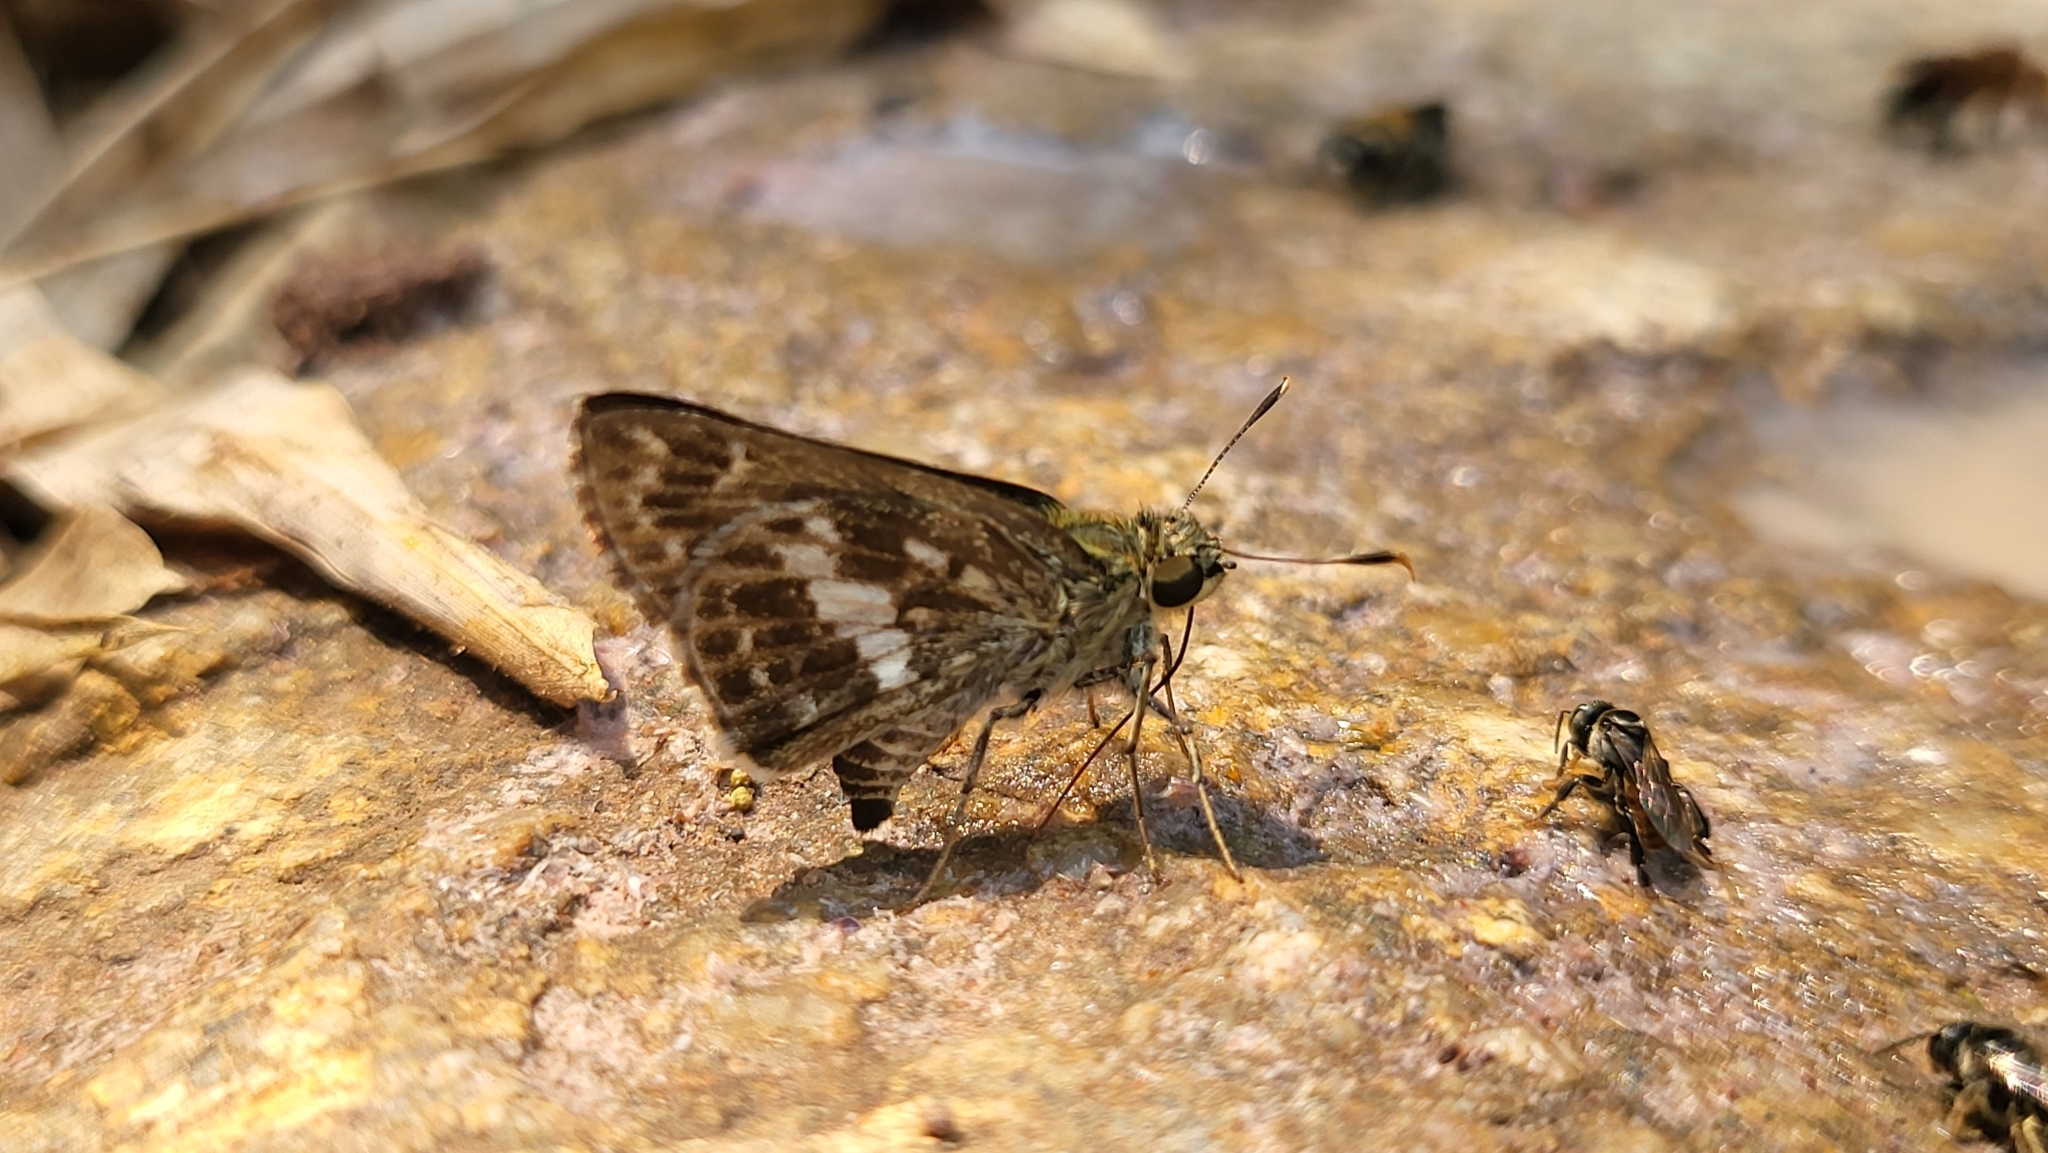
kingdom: Animalia
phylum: Arthropoda
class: Insecta
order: Lepidoptera
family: Hesperiidae
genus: Halpe
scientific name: Halpe porus
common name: Moore's ace
